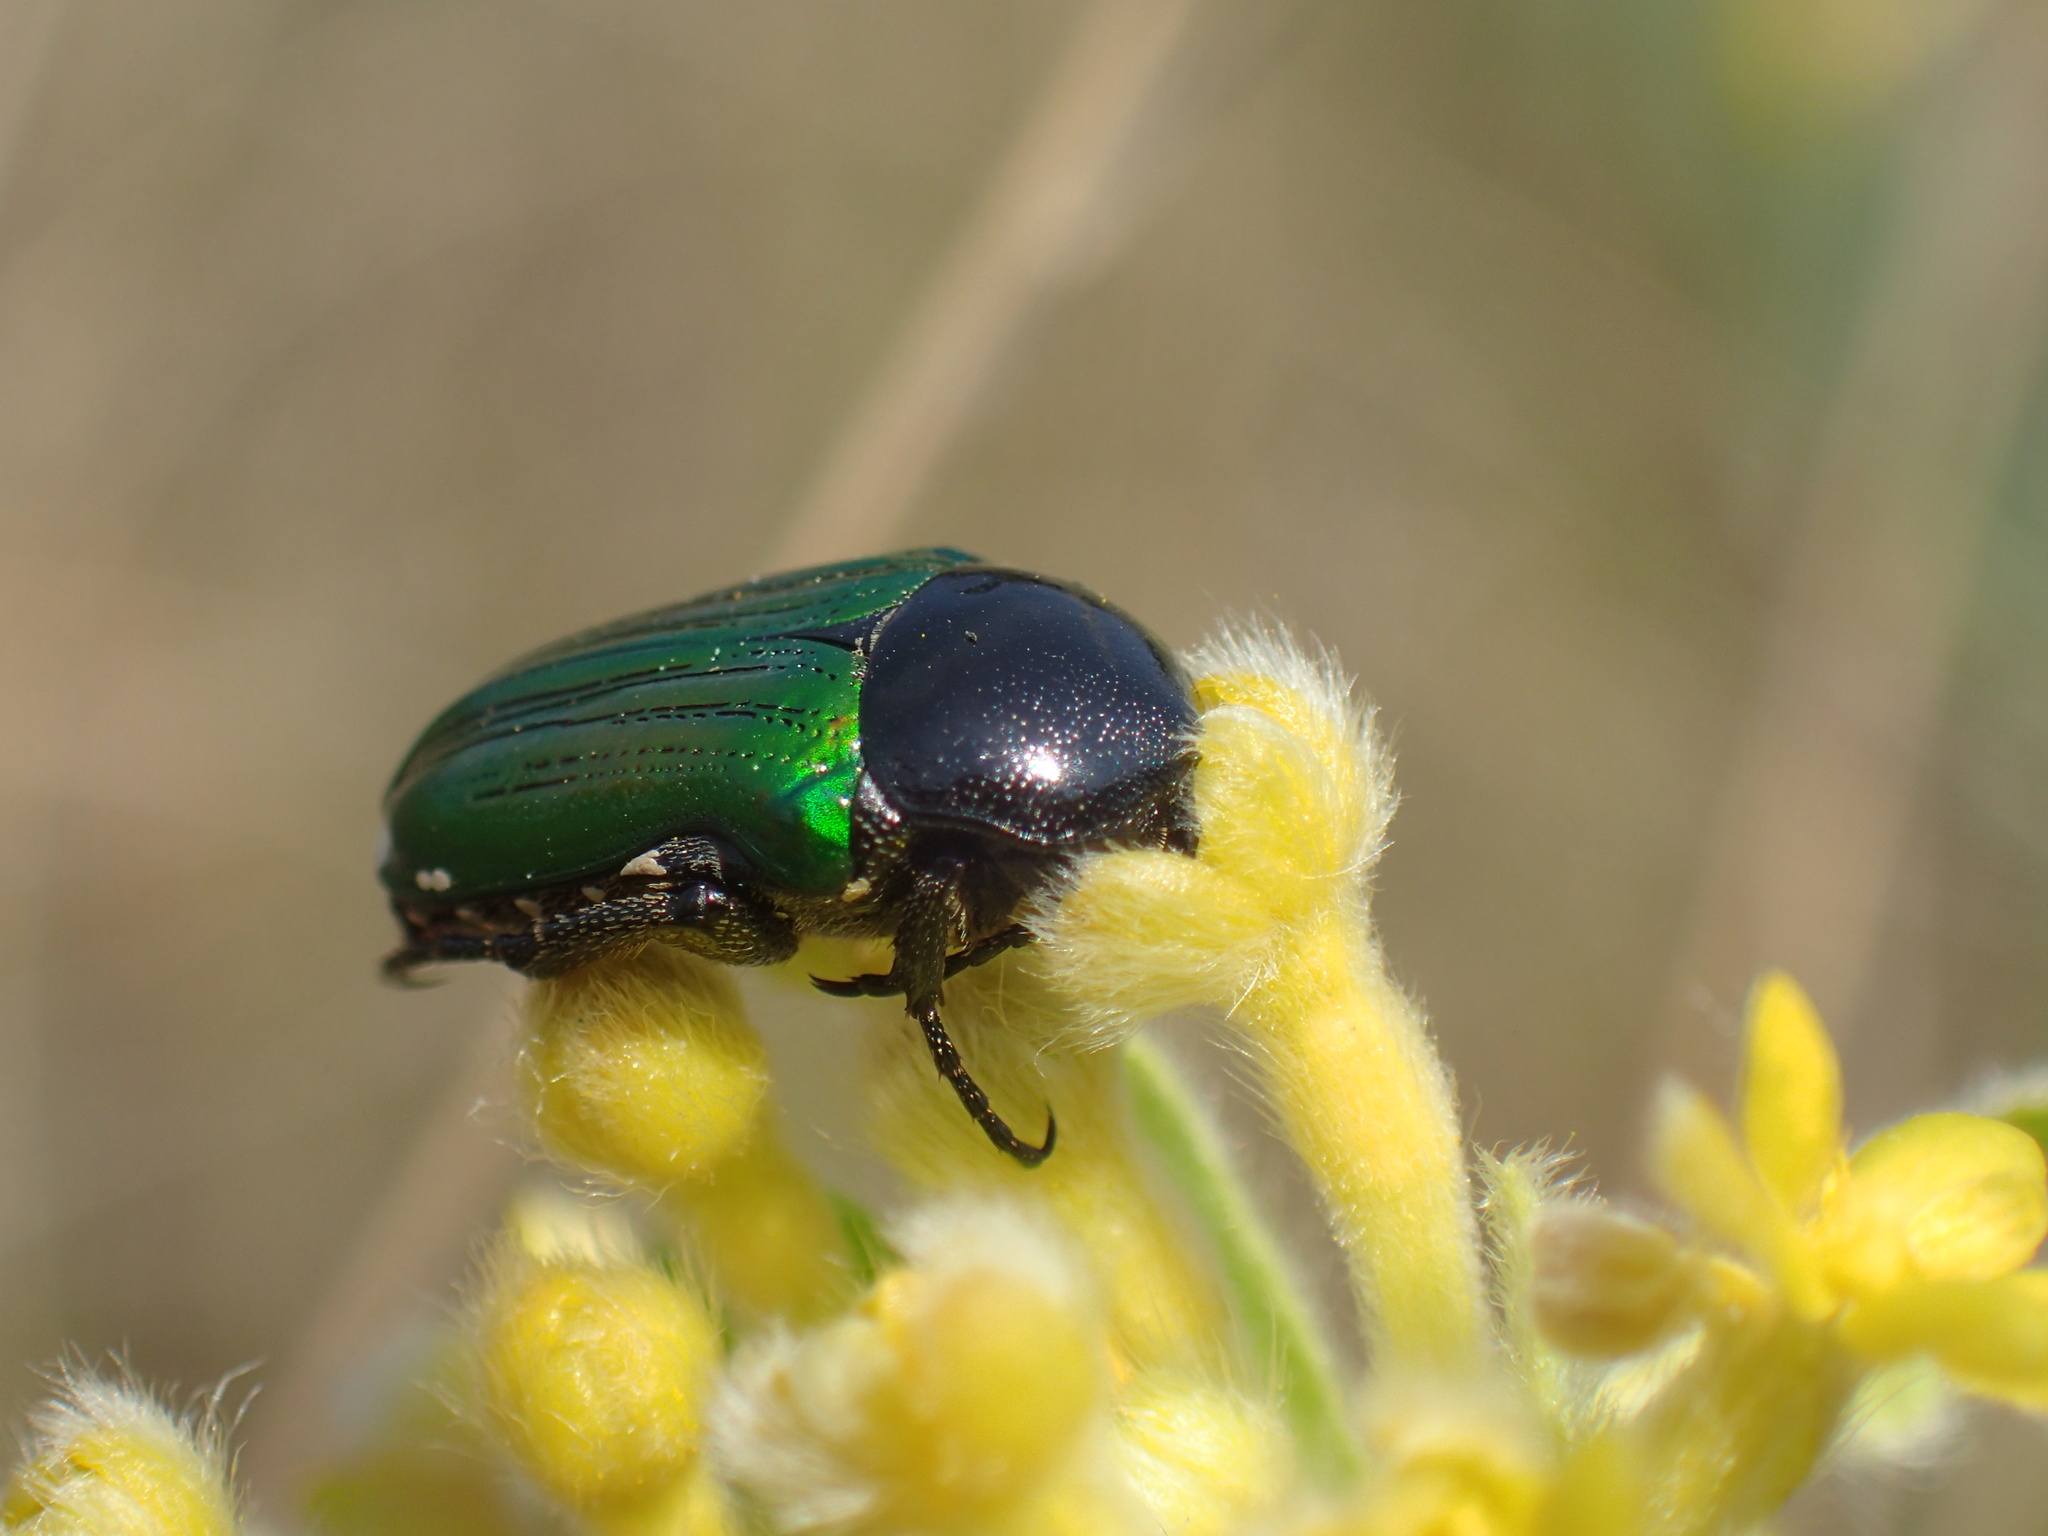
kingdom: Animalia
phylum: Arthropoda
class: Insecta
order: Coleoptera
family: Scarabaeidae
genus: Leucocelis
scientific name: Leucocelis haemorrhoidalis
